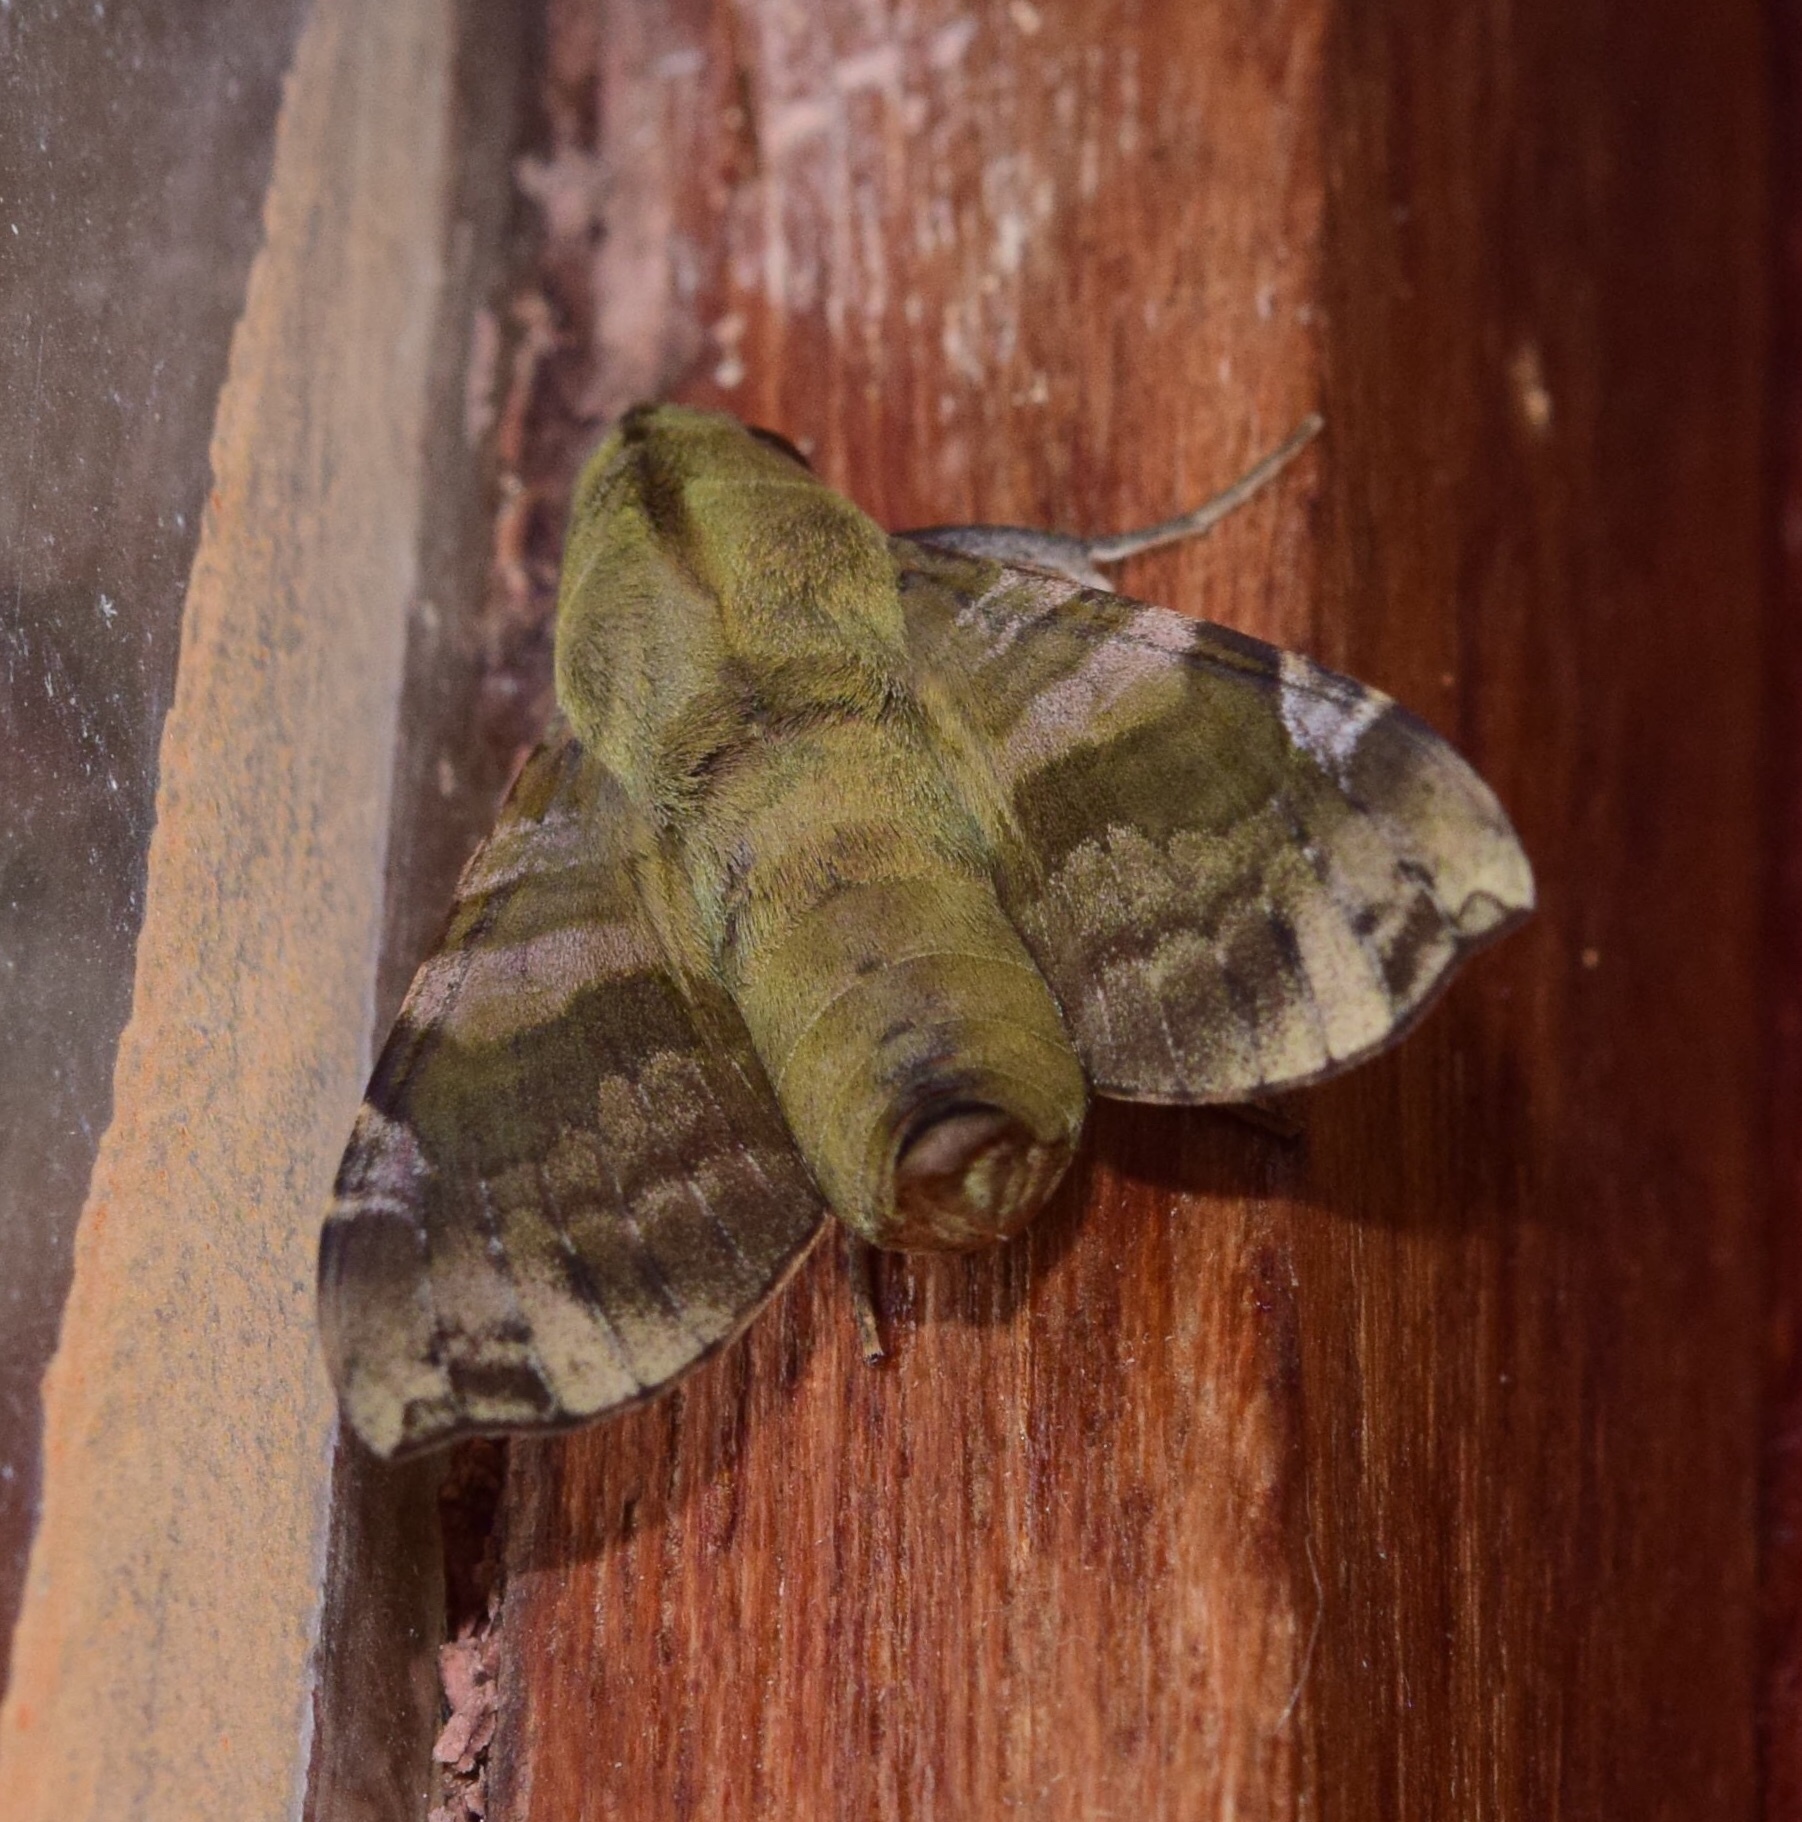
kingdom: Animalia
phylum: Arthropoda
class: Insecta
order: Lepidoptera
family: Sphingidae
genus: Temnora
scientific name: Temnora fumosa
